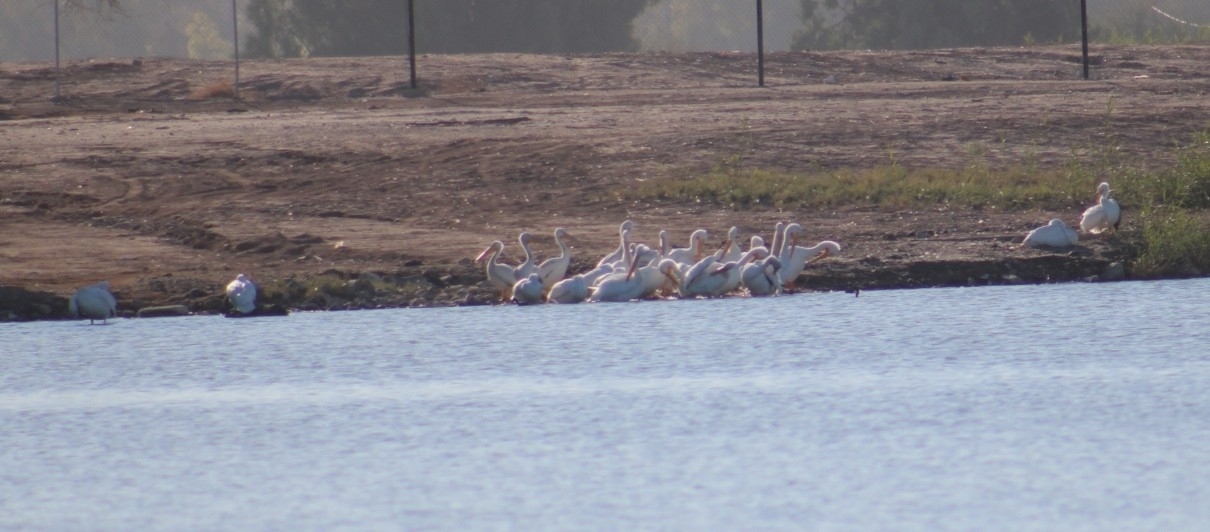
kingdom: Animalia
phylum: Chordata
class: Aves
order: Pelecaniformes
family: Pelecanidae
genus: Pelecanus
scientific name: Pelecanus erythrorhynchos
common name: American white pelican
